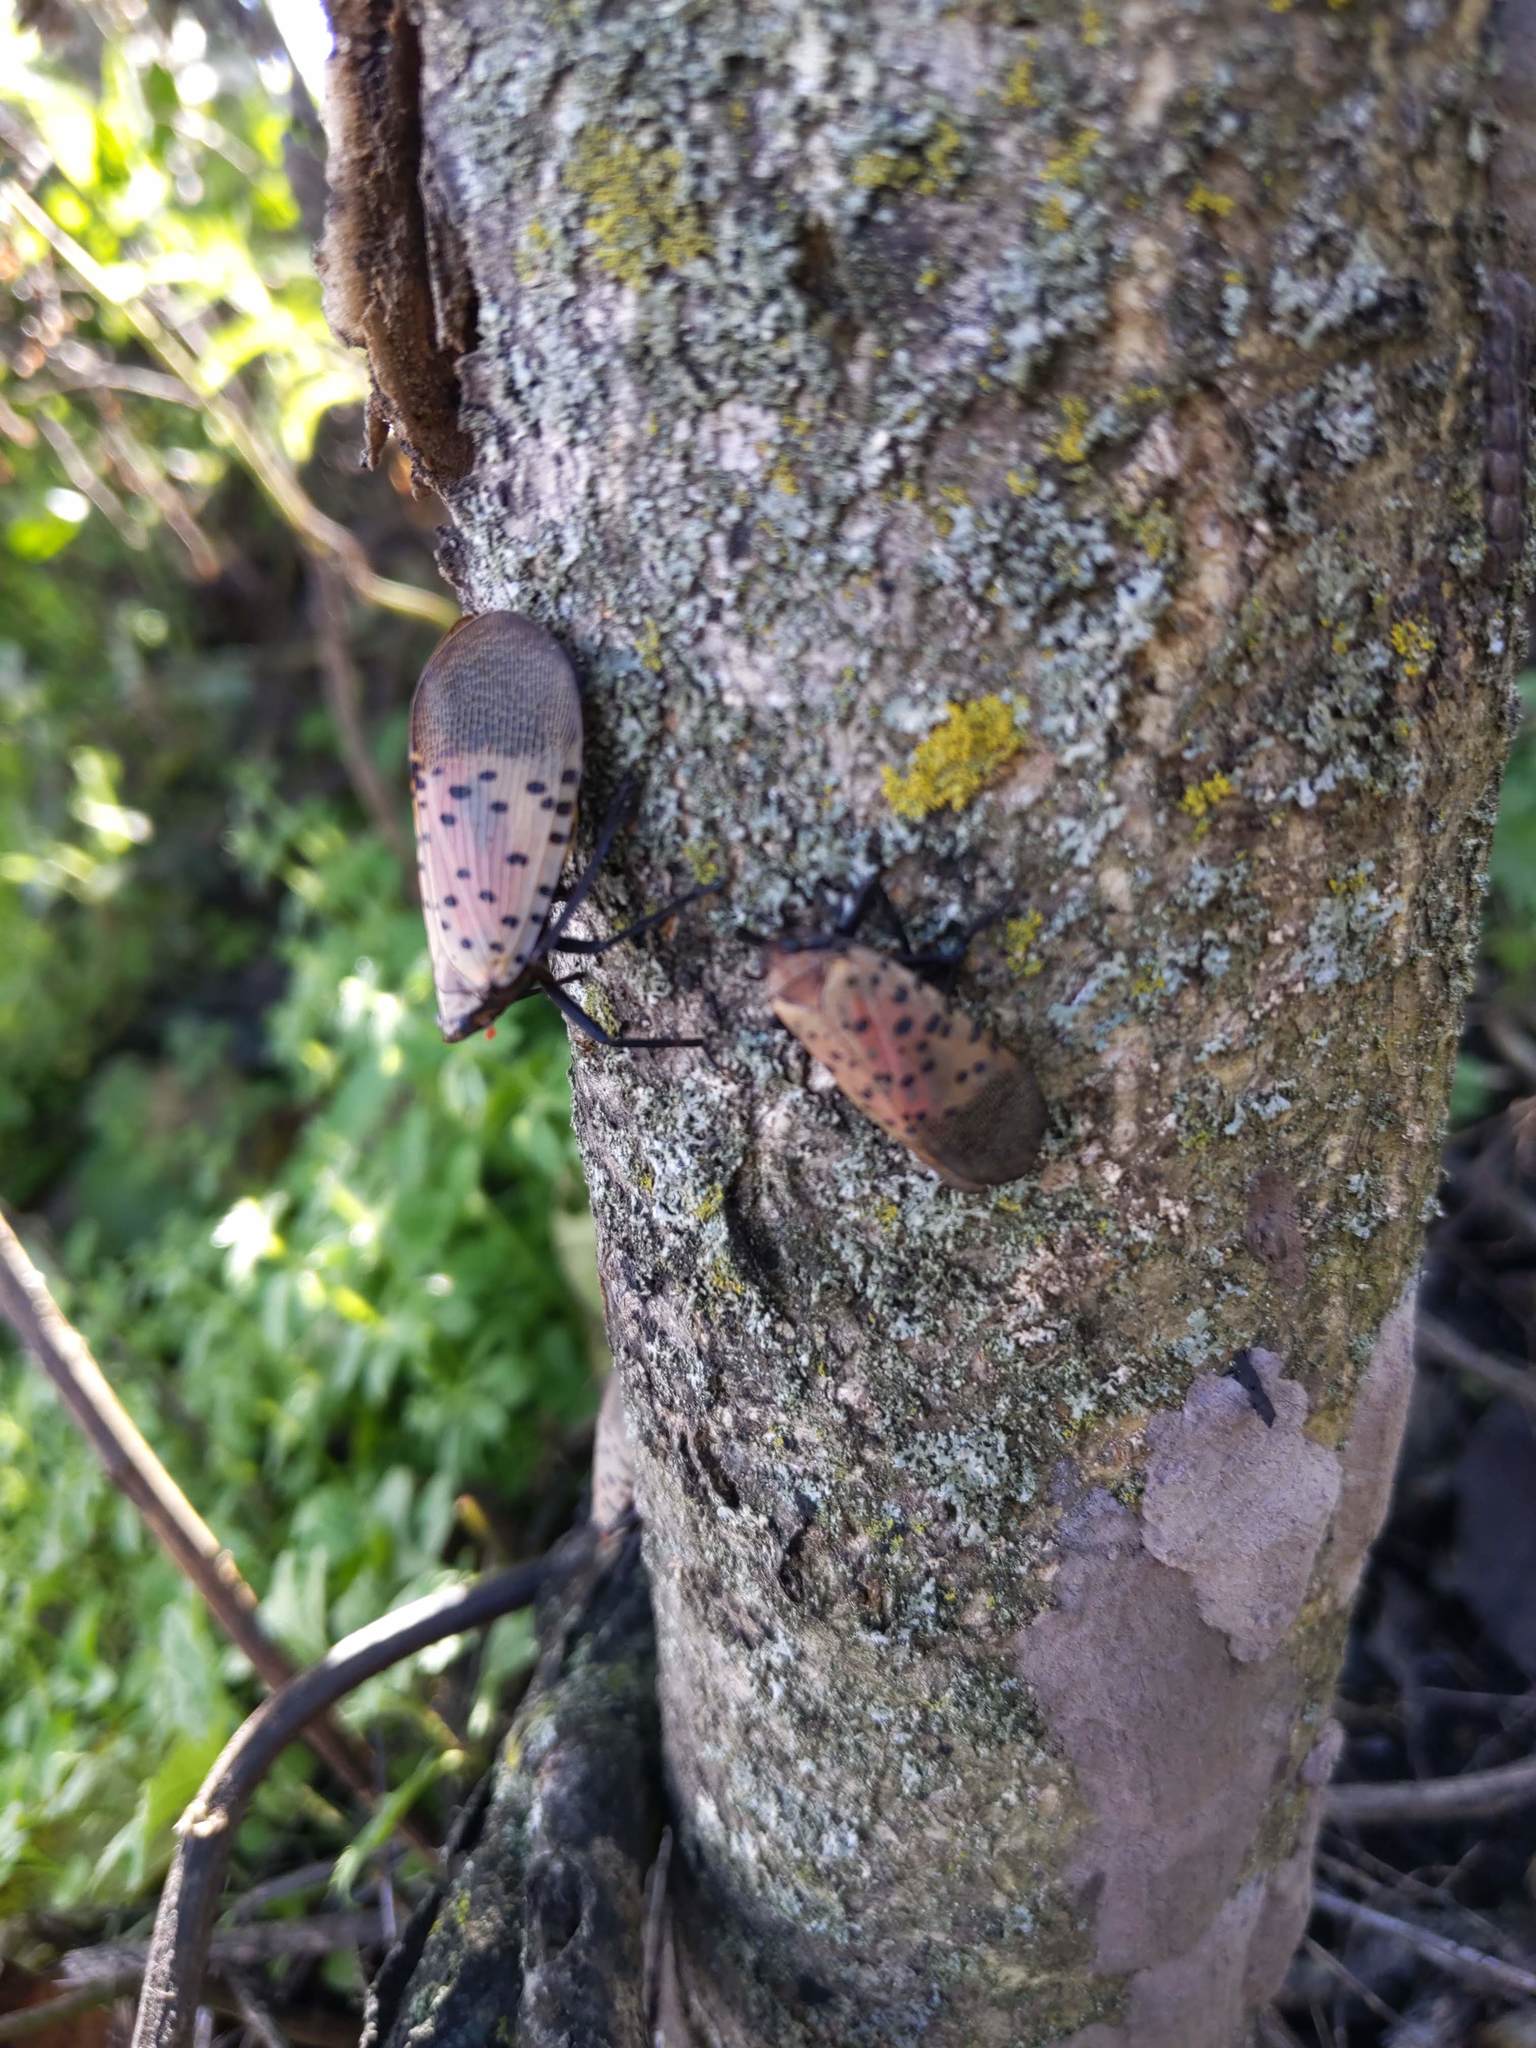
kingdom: Animalia
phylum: Arthropoda
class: Insecta
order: Hemiptera
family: Fulgoridae
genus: Lycorma
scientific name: Lycorma delicatula
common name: Spotted lanternfly
